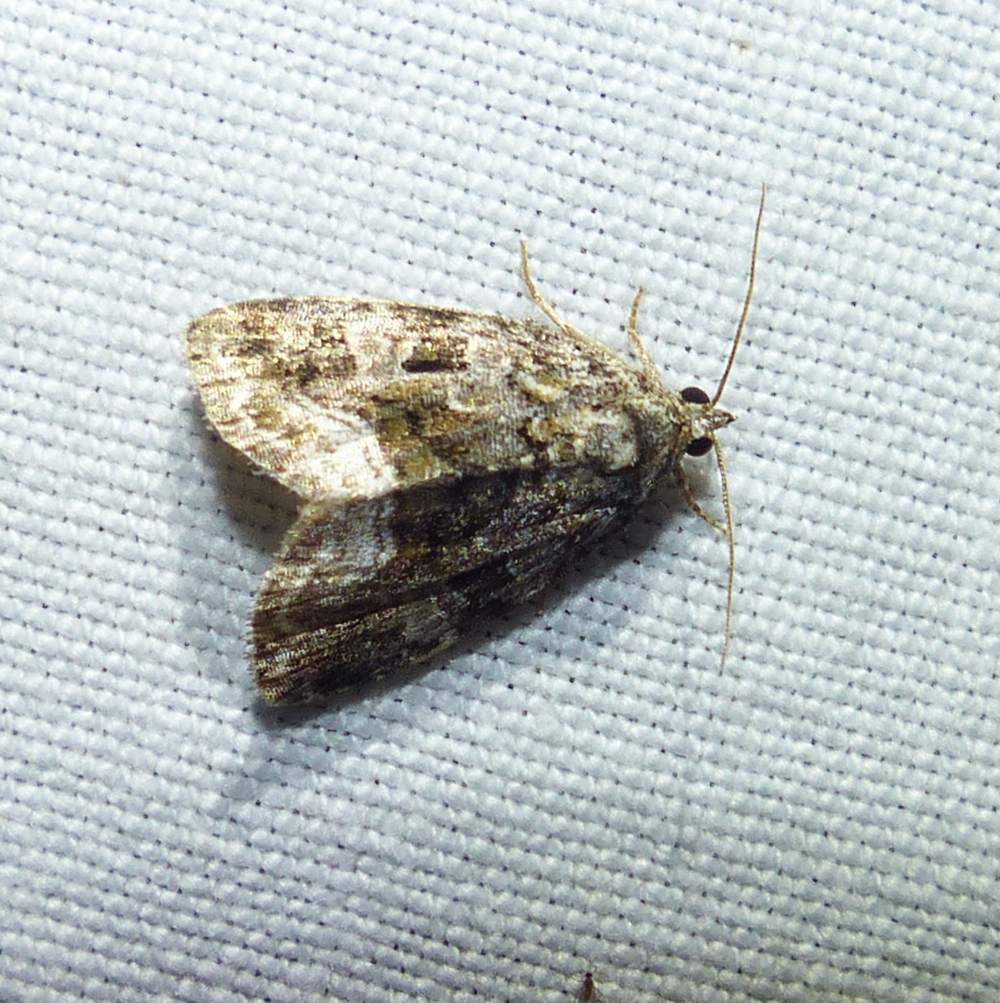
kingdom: Animalia
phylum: Arthropoda
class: Insecta
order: Lepidoptera
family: Noctuidae
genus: Protodeltote
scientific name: Protodeltote muscosula
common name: Large mossy glyph
